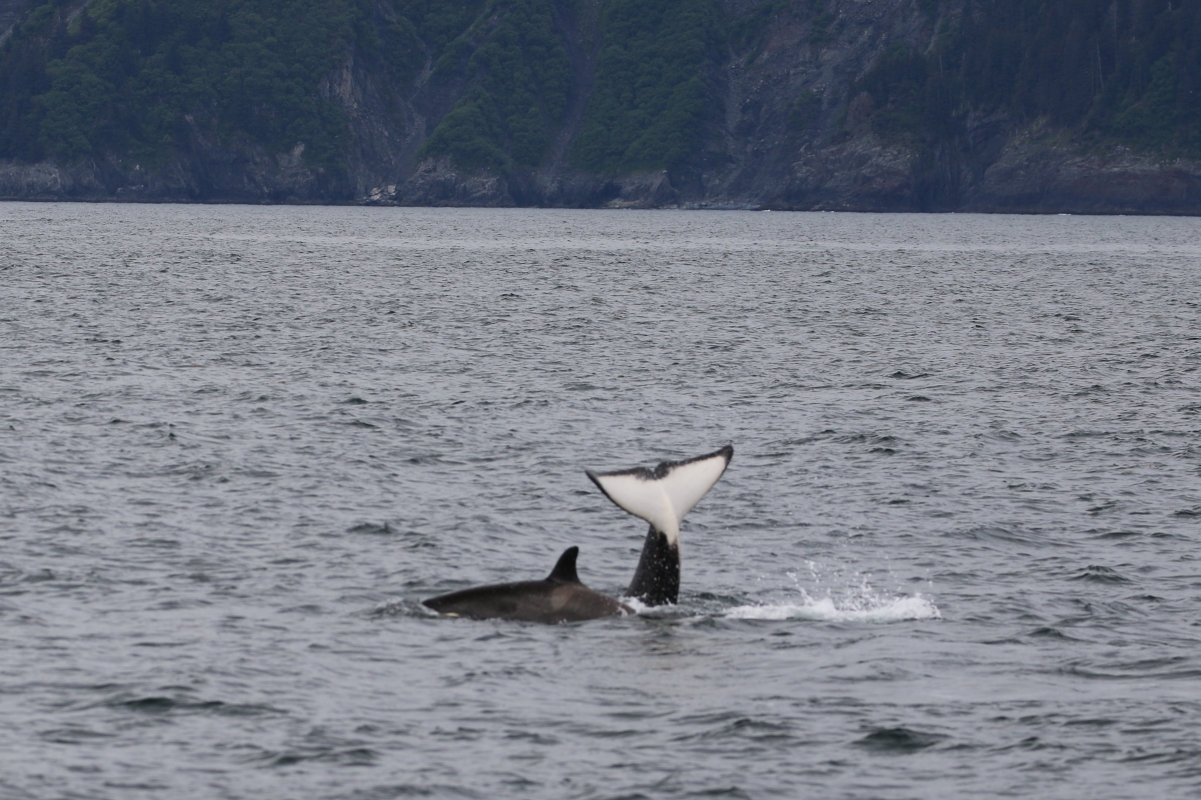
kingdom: Animalia
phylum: Chordata
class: Mammalia
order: Cetacea
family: Delphinidae
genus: Orcinus
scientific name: Orcinus orca
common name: Killer whale
